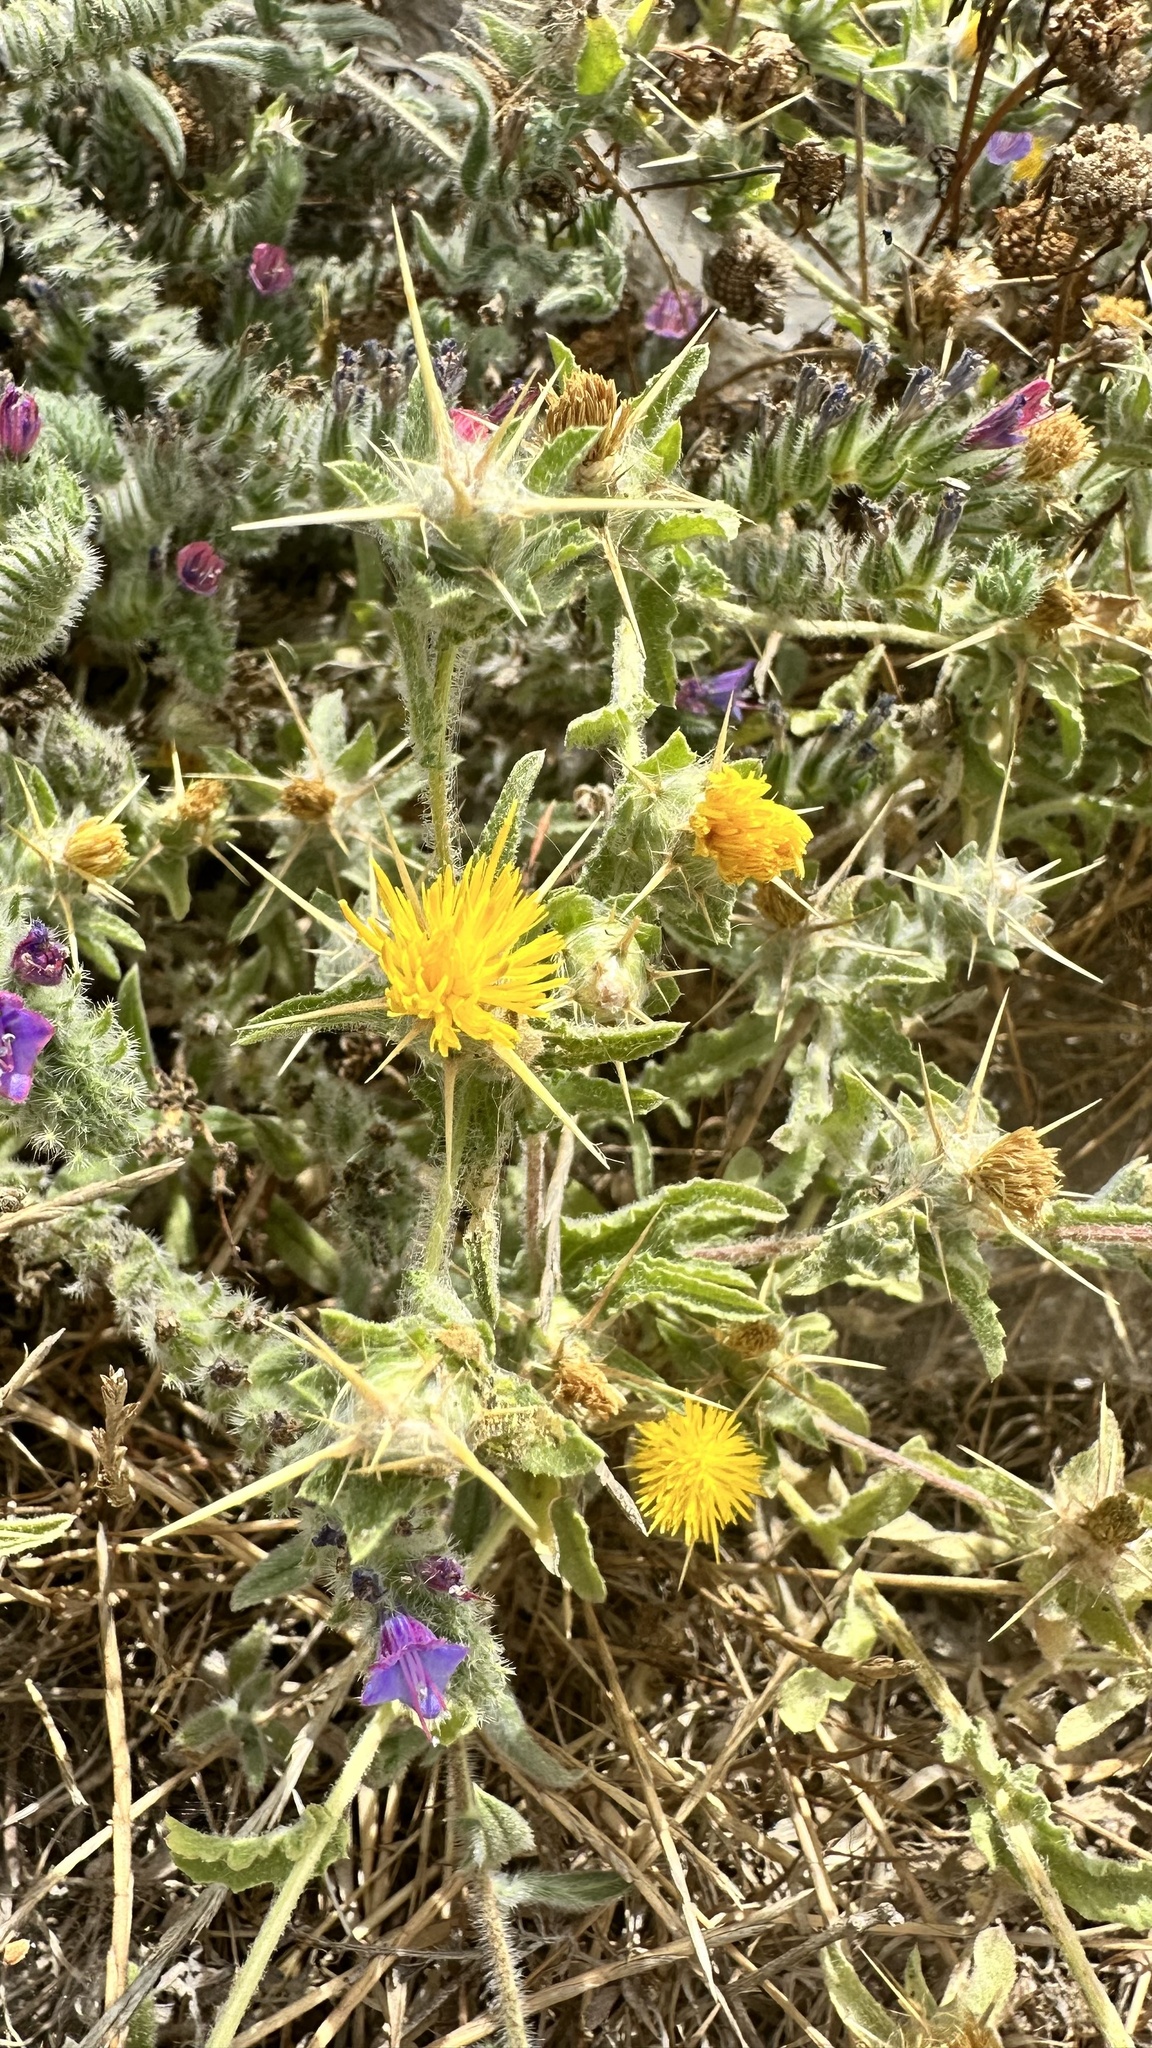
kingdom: Plantae
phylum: Tracheophyta
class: Magnoliopsida
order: Asterales
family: Asteraceae
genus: Centaurea
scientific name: Centaurea procurrens
